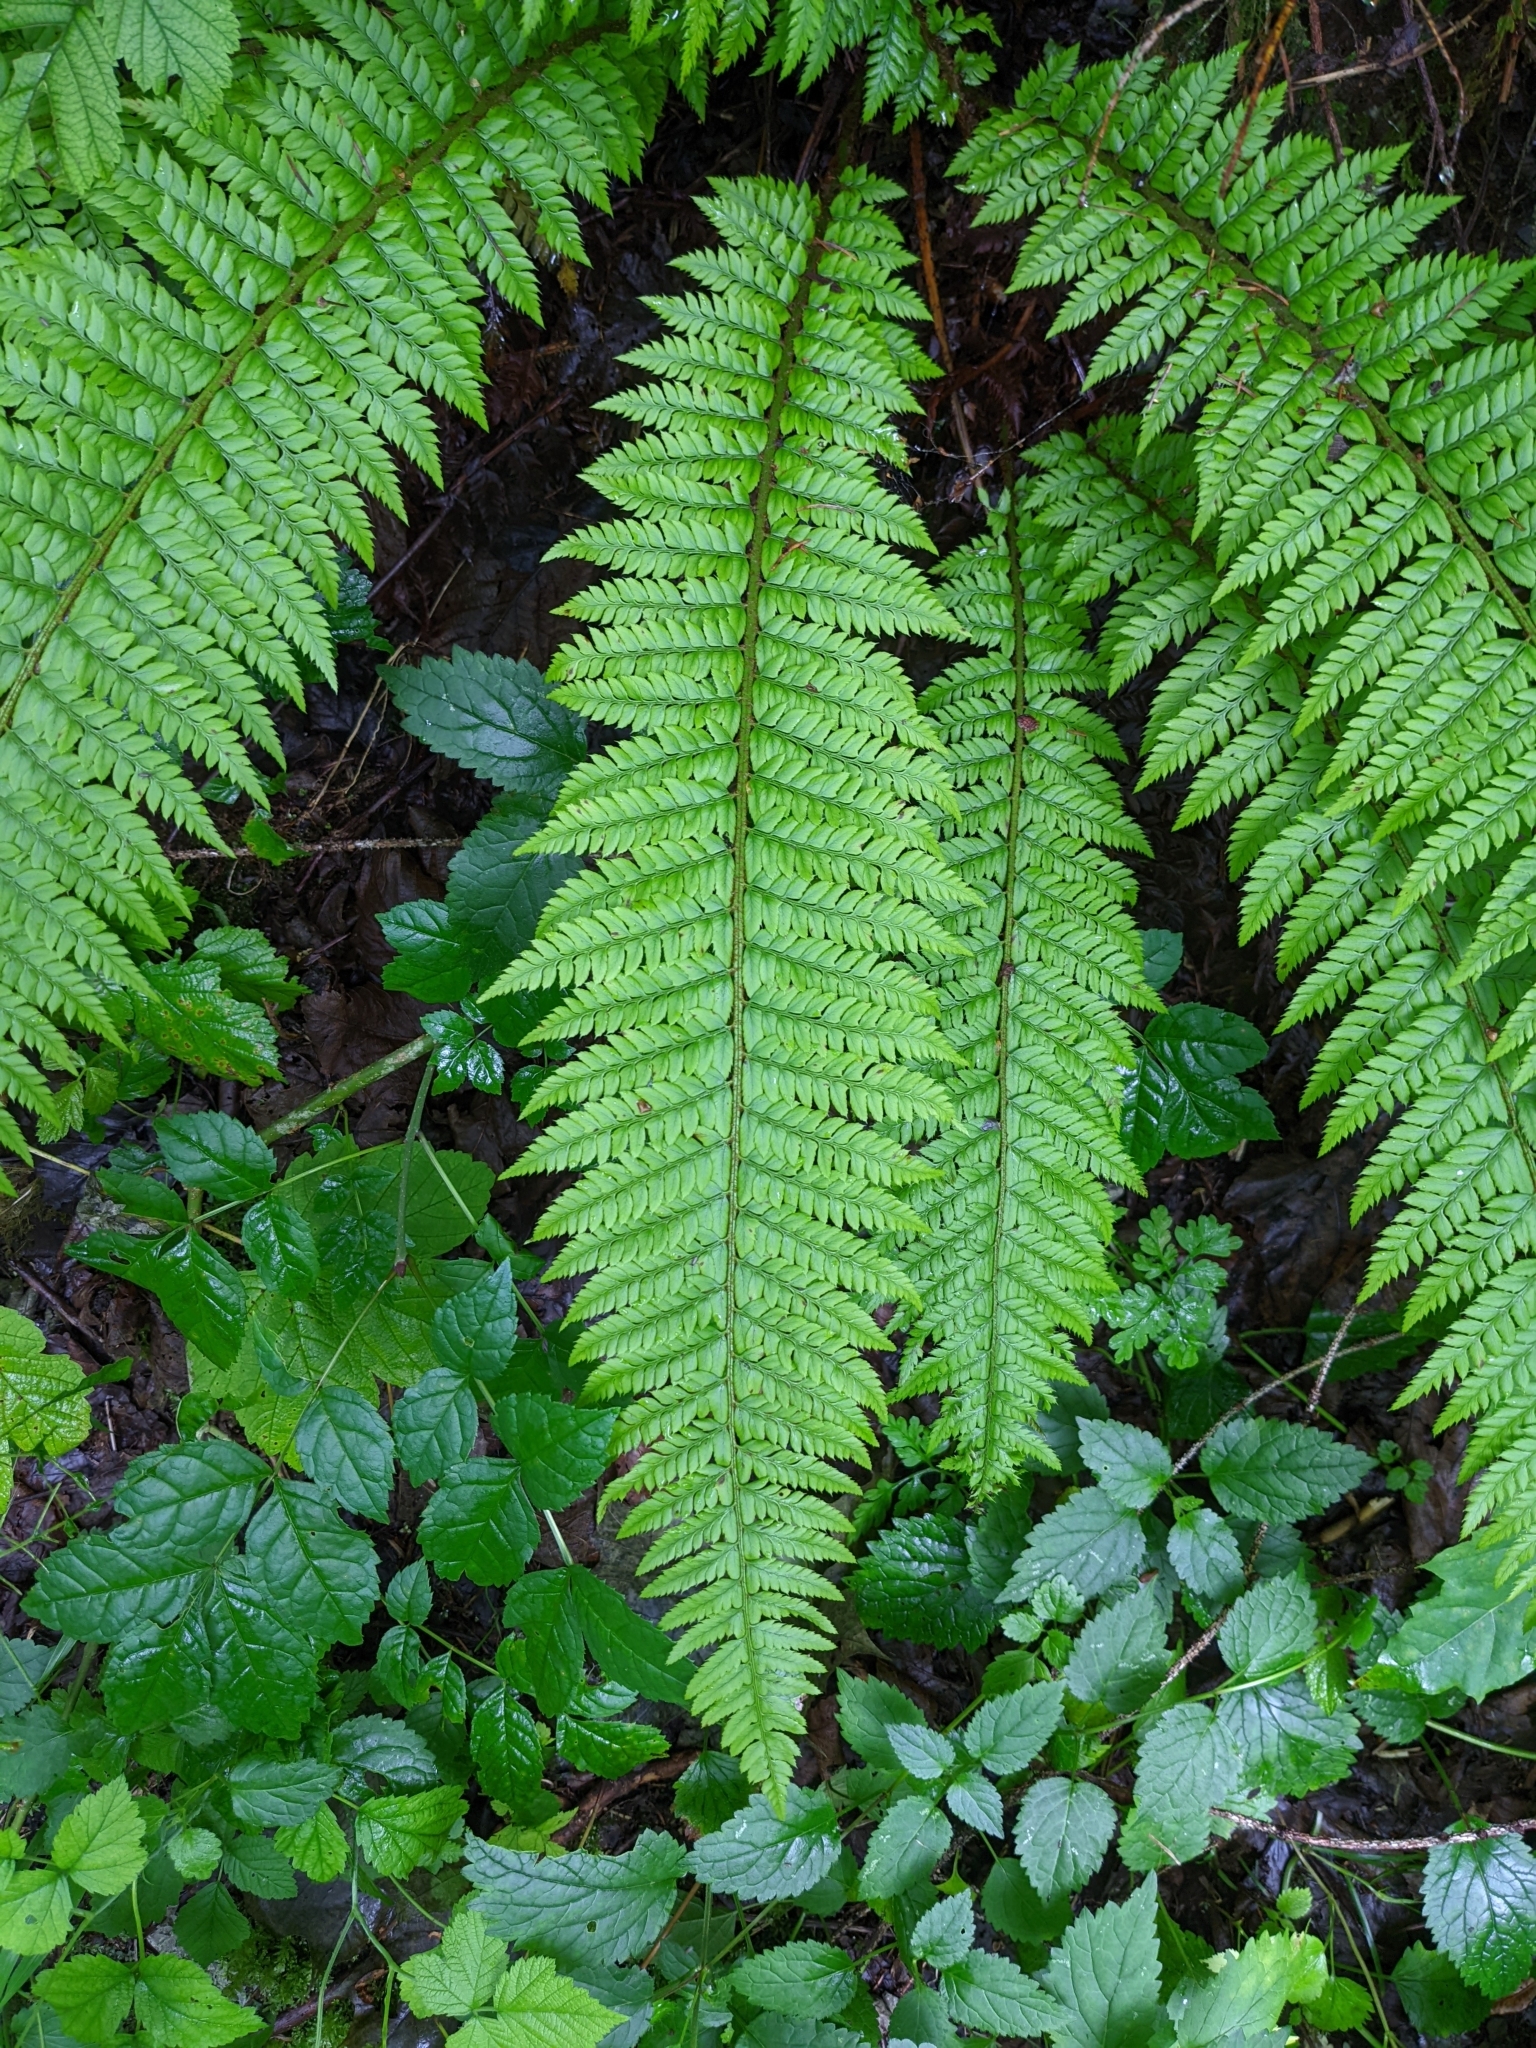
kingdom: Plantae
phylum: Tracheophyta
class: Polypodiopsida
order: Polypodiales
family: Dryopteridaceae
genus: Polystichum
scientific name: Polystichum aculeatum
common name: Hard shield-fern
